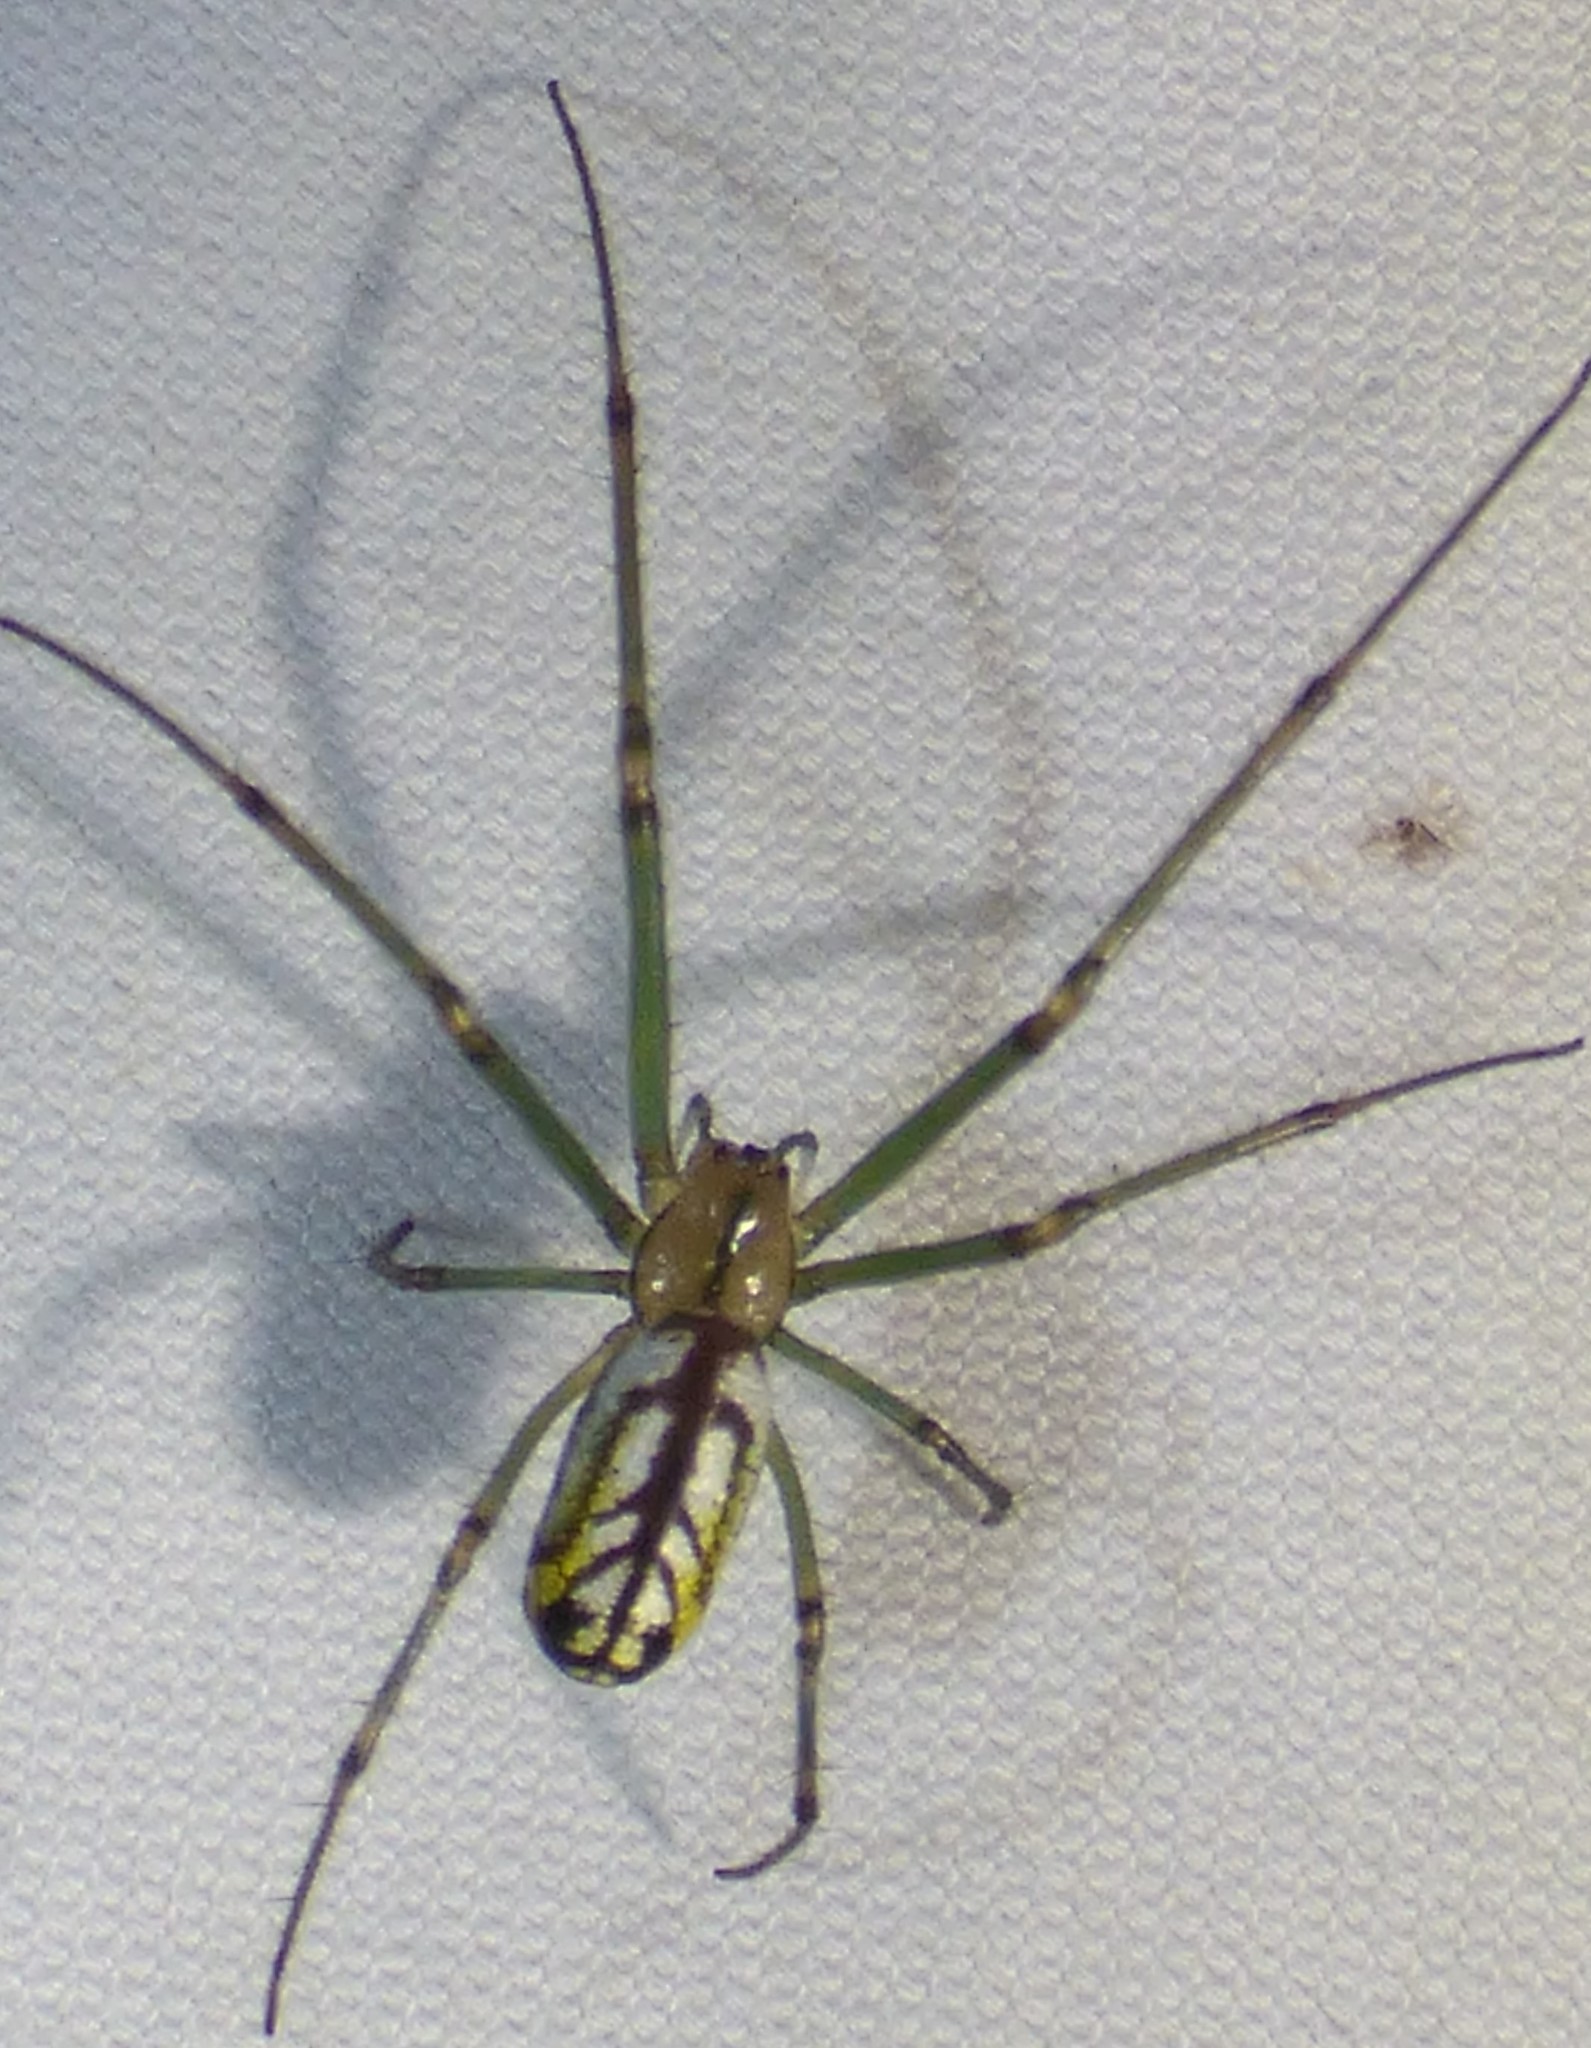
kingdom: Animalia
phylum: Arthropoda
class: Arachnida
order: Araneae
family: Tetragnathidae
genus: Leucauge
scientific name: Leucauge venusta
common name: Longjawed orb weavers
